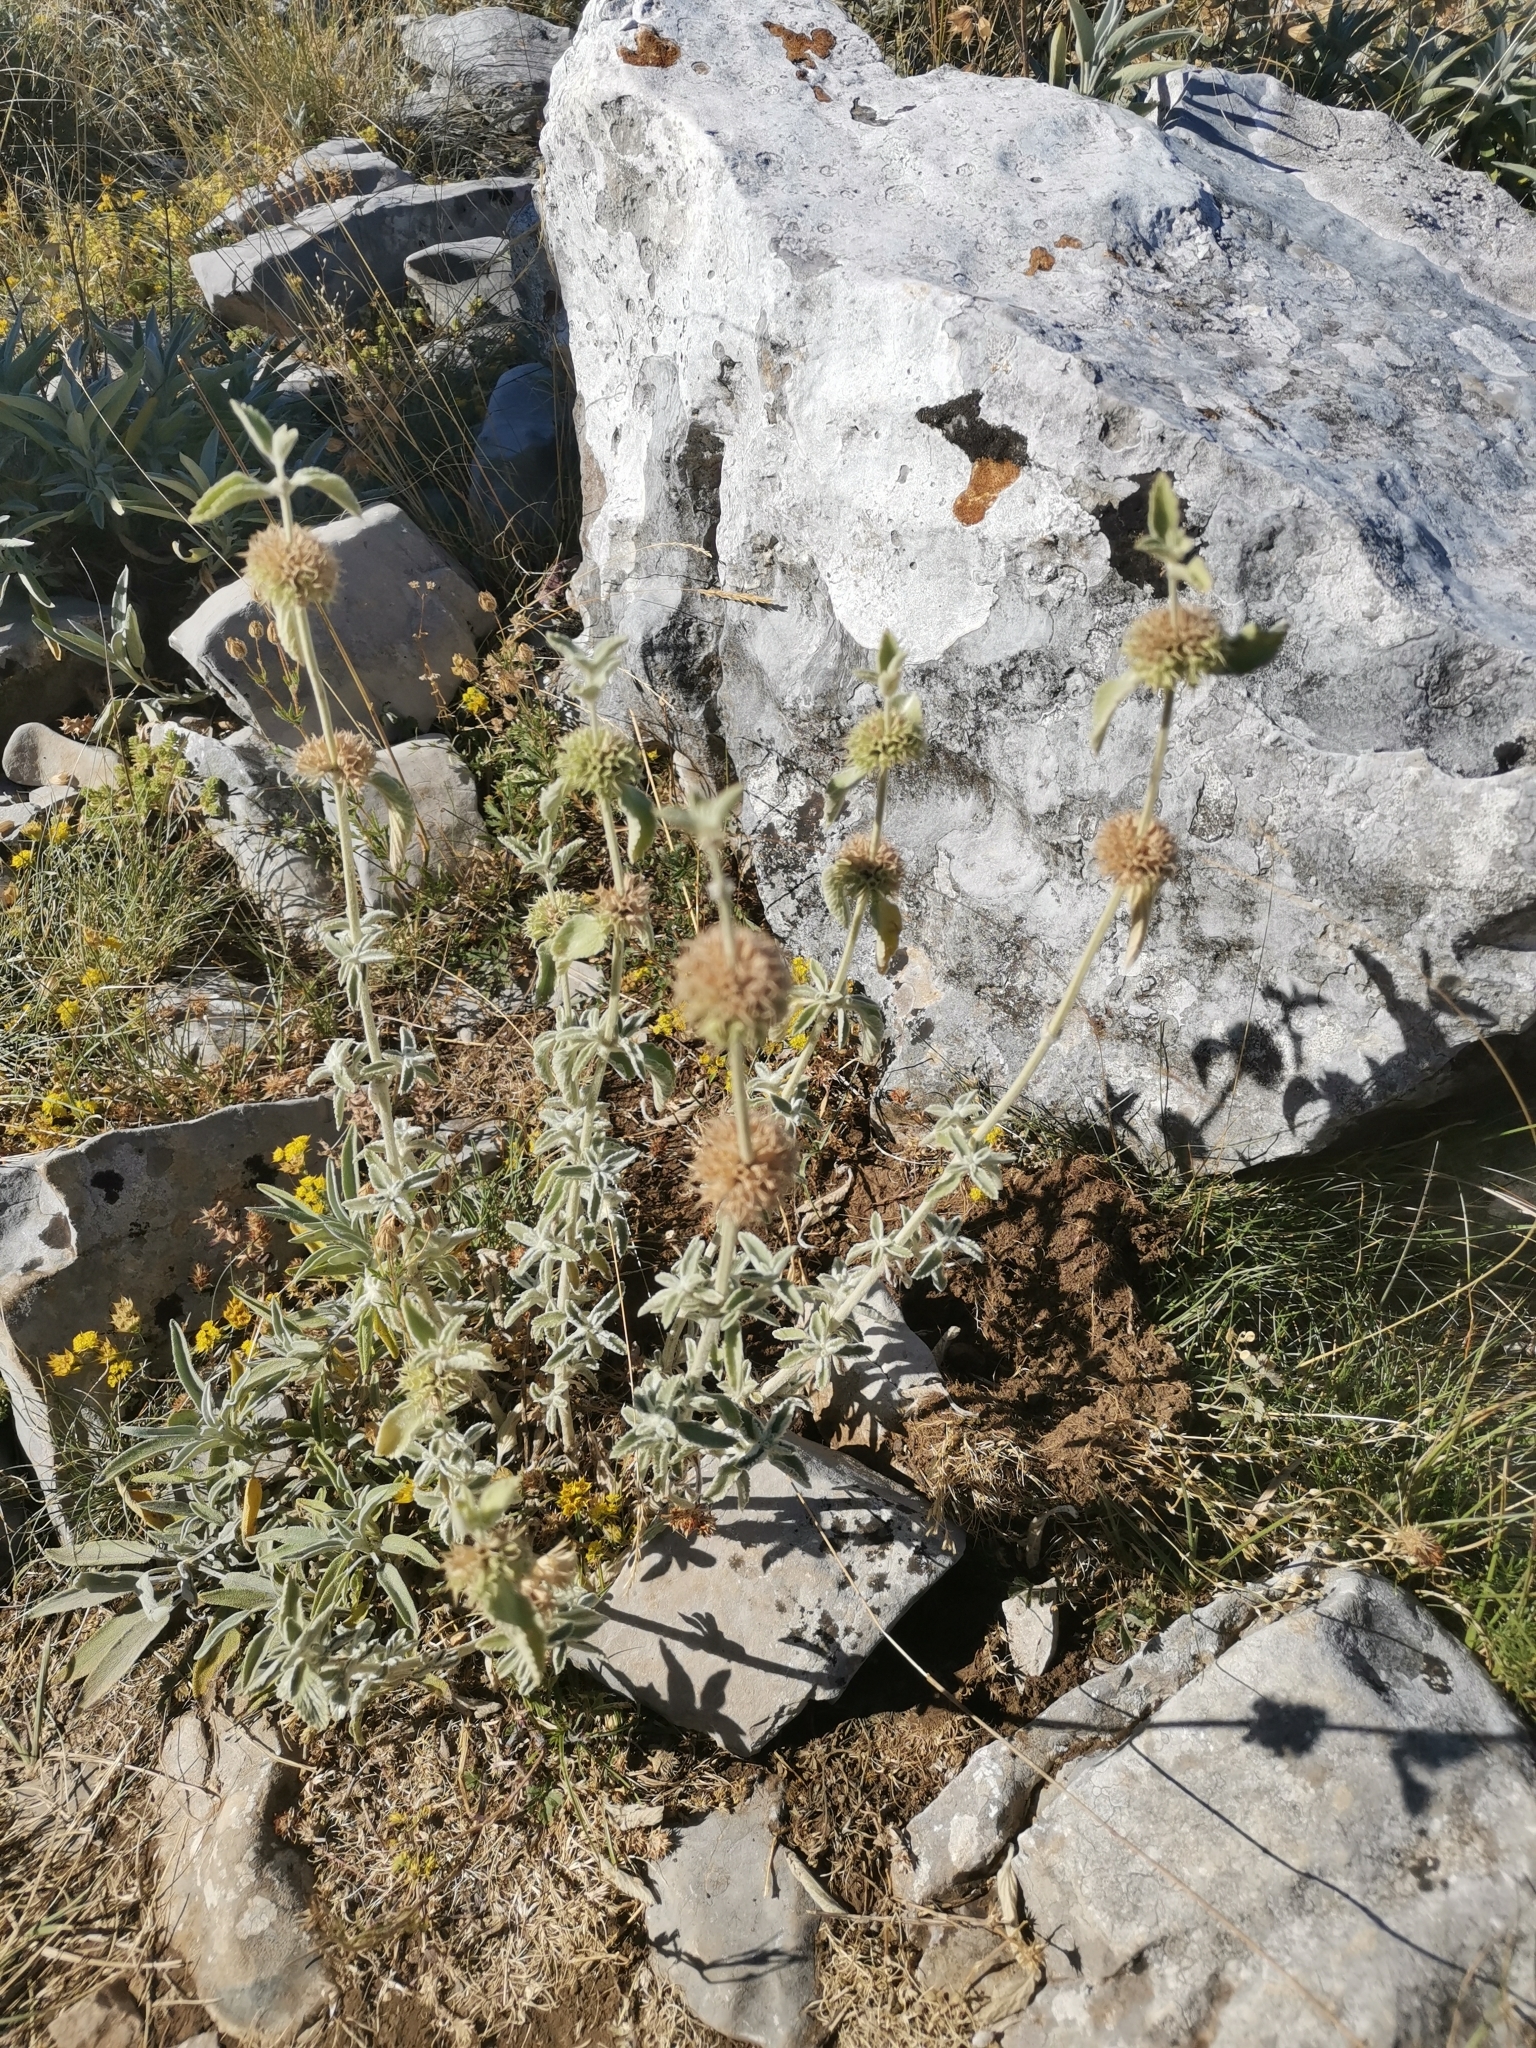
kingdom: Plantae
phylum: Tracheophyta
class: Magnoliopsida
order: Lamiales
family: Lamiaceae
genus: Marrubium
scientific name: Marrubium incanum
